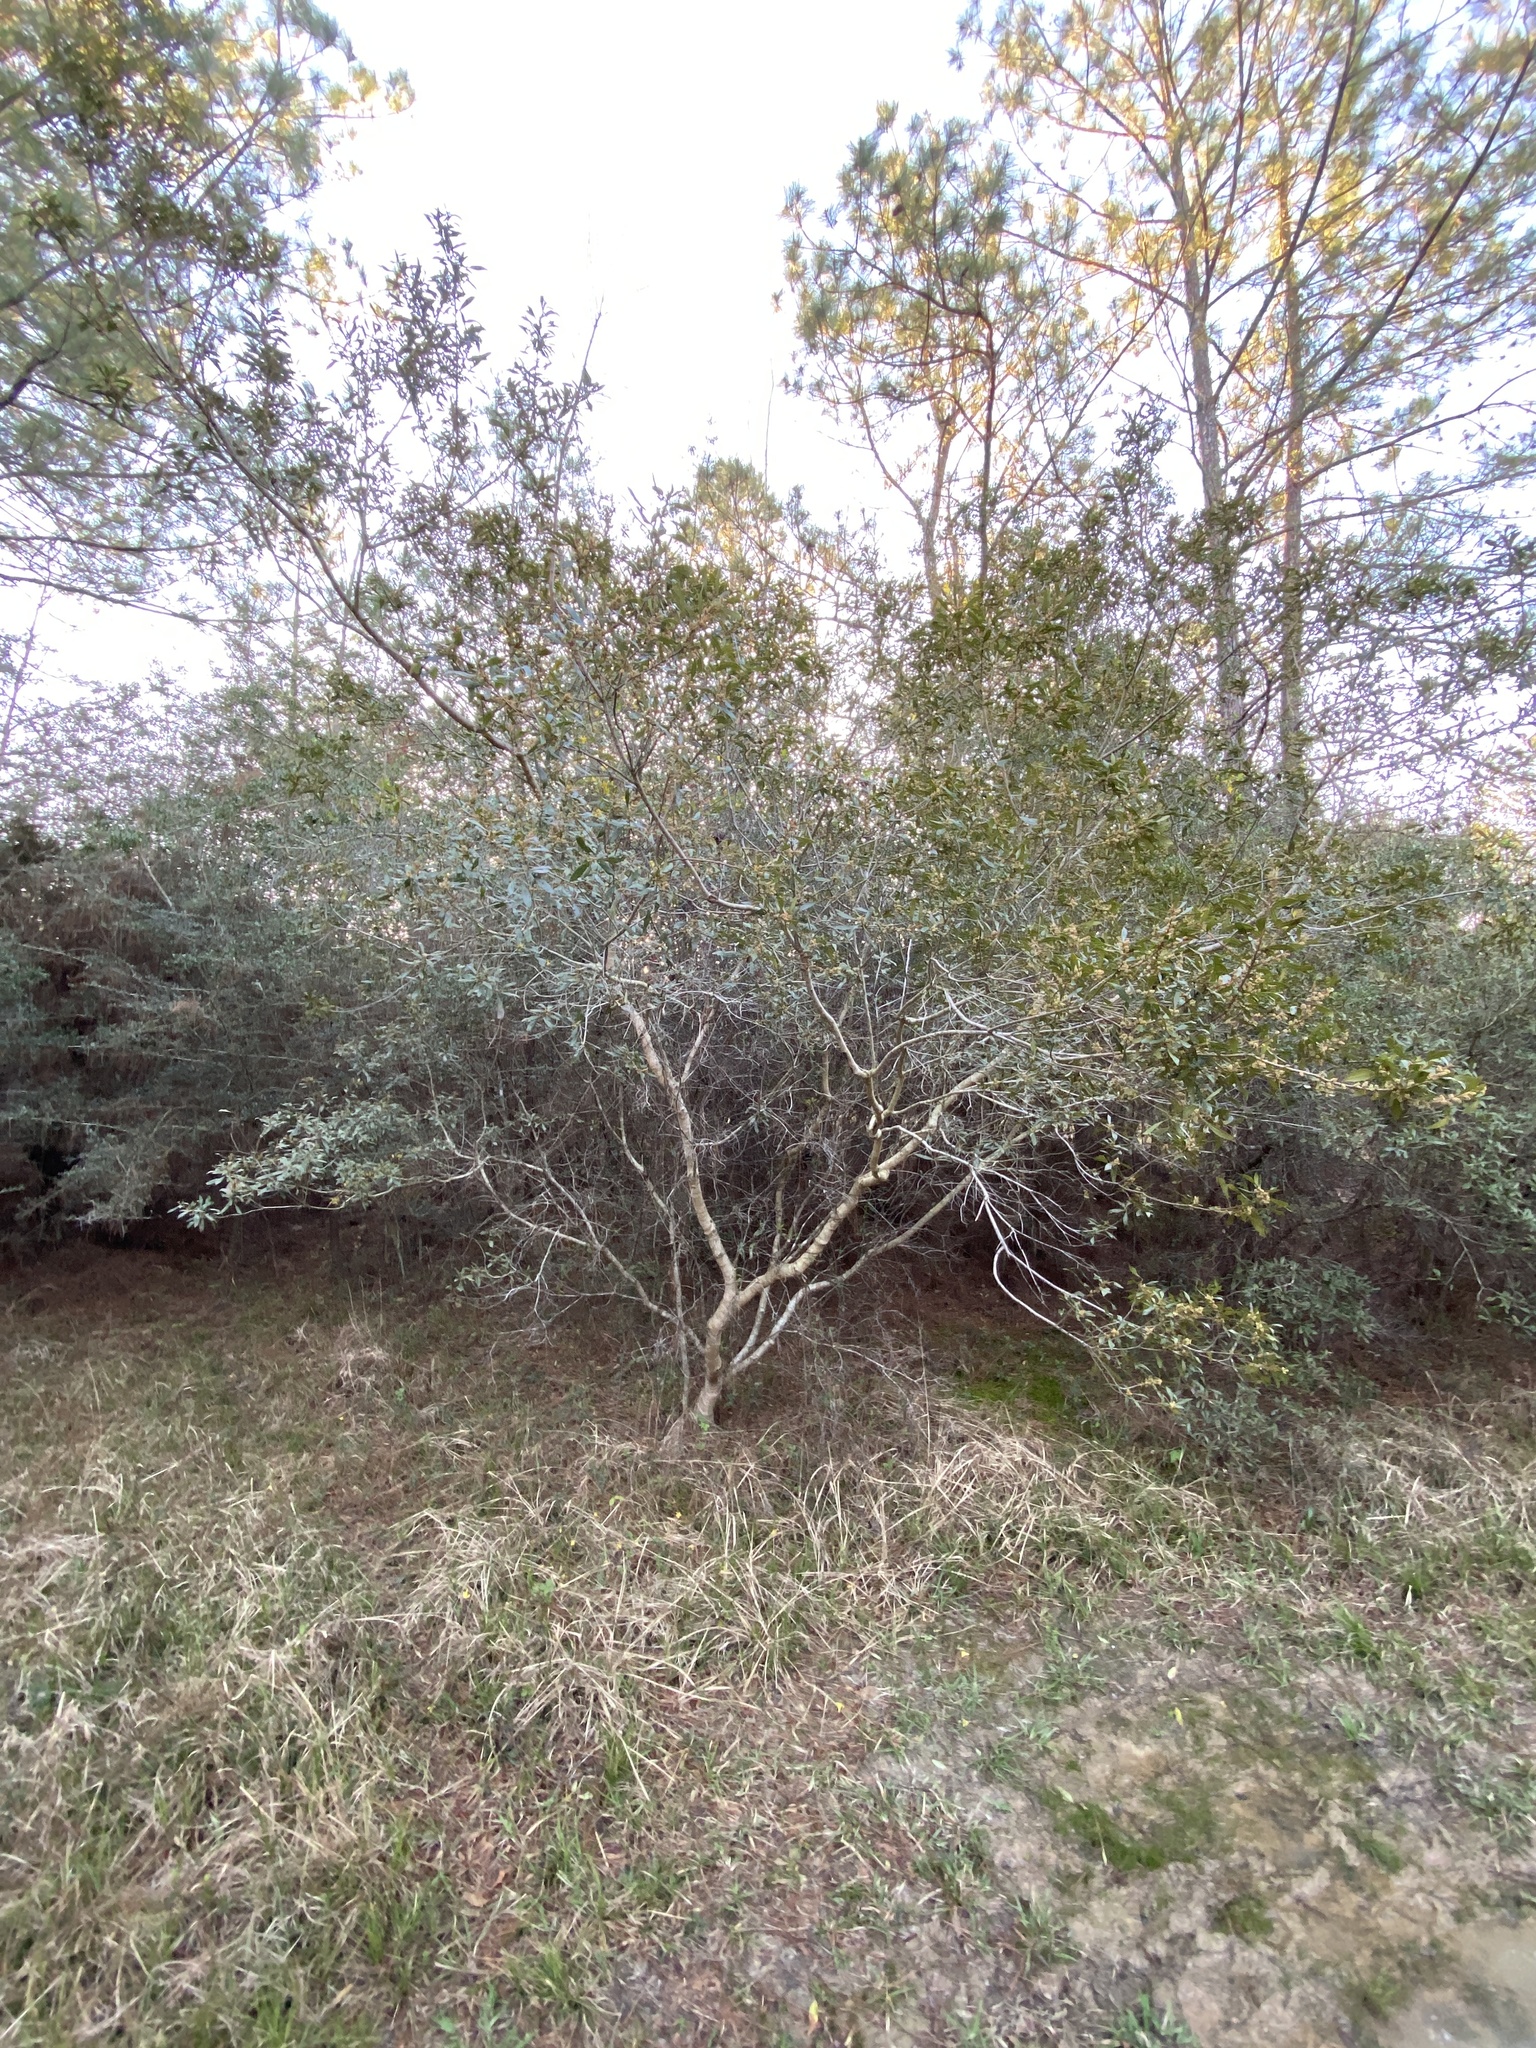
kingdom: Plantae
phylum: Tracheophyta
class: Magnoliopsida
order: Fagales
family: Myricaceae
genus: Morella
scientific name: Morella cerifera
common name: Wax myrtle
